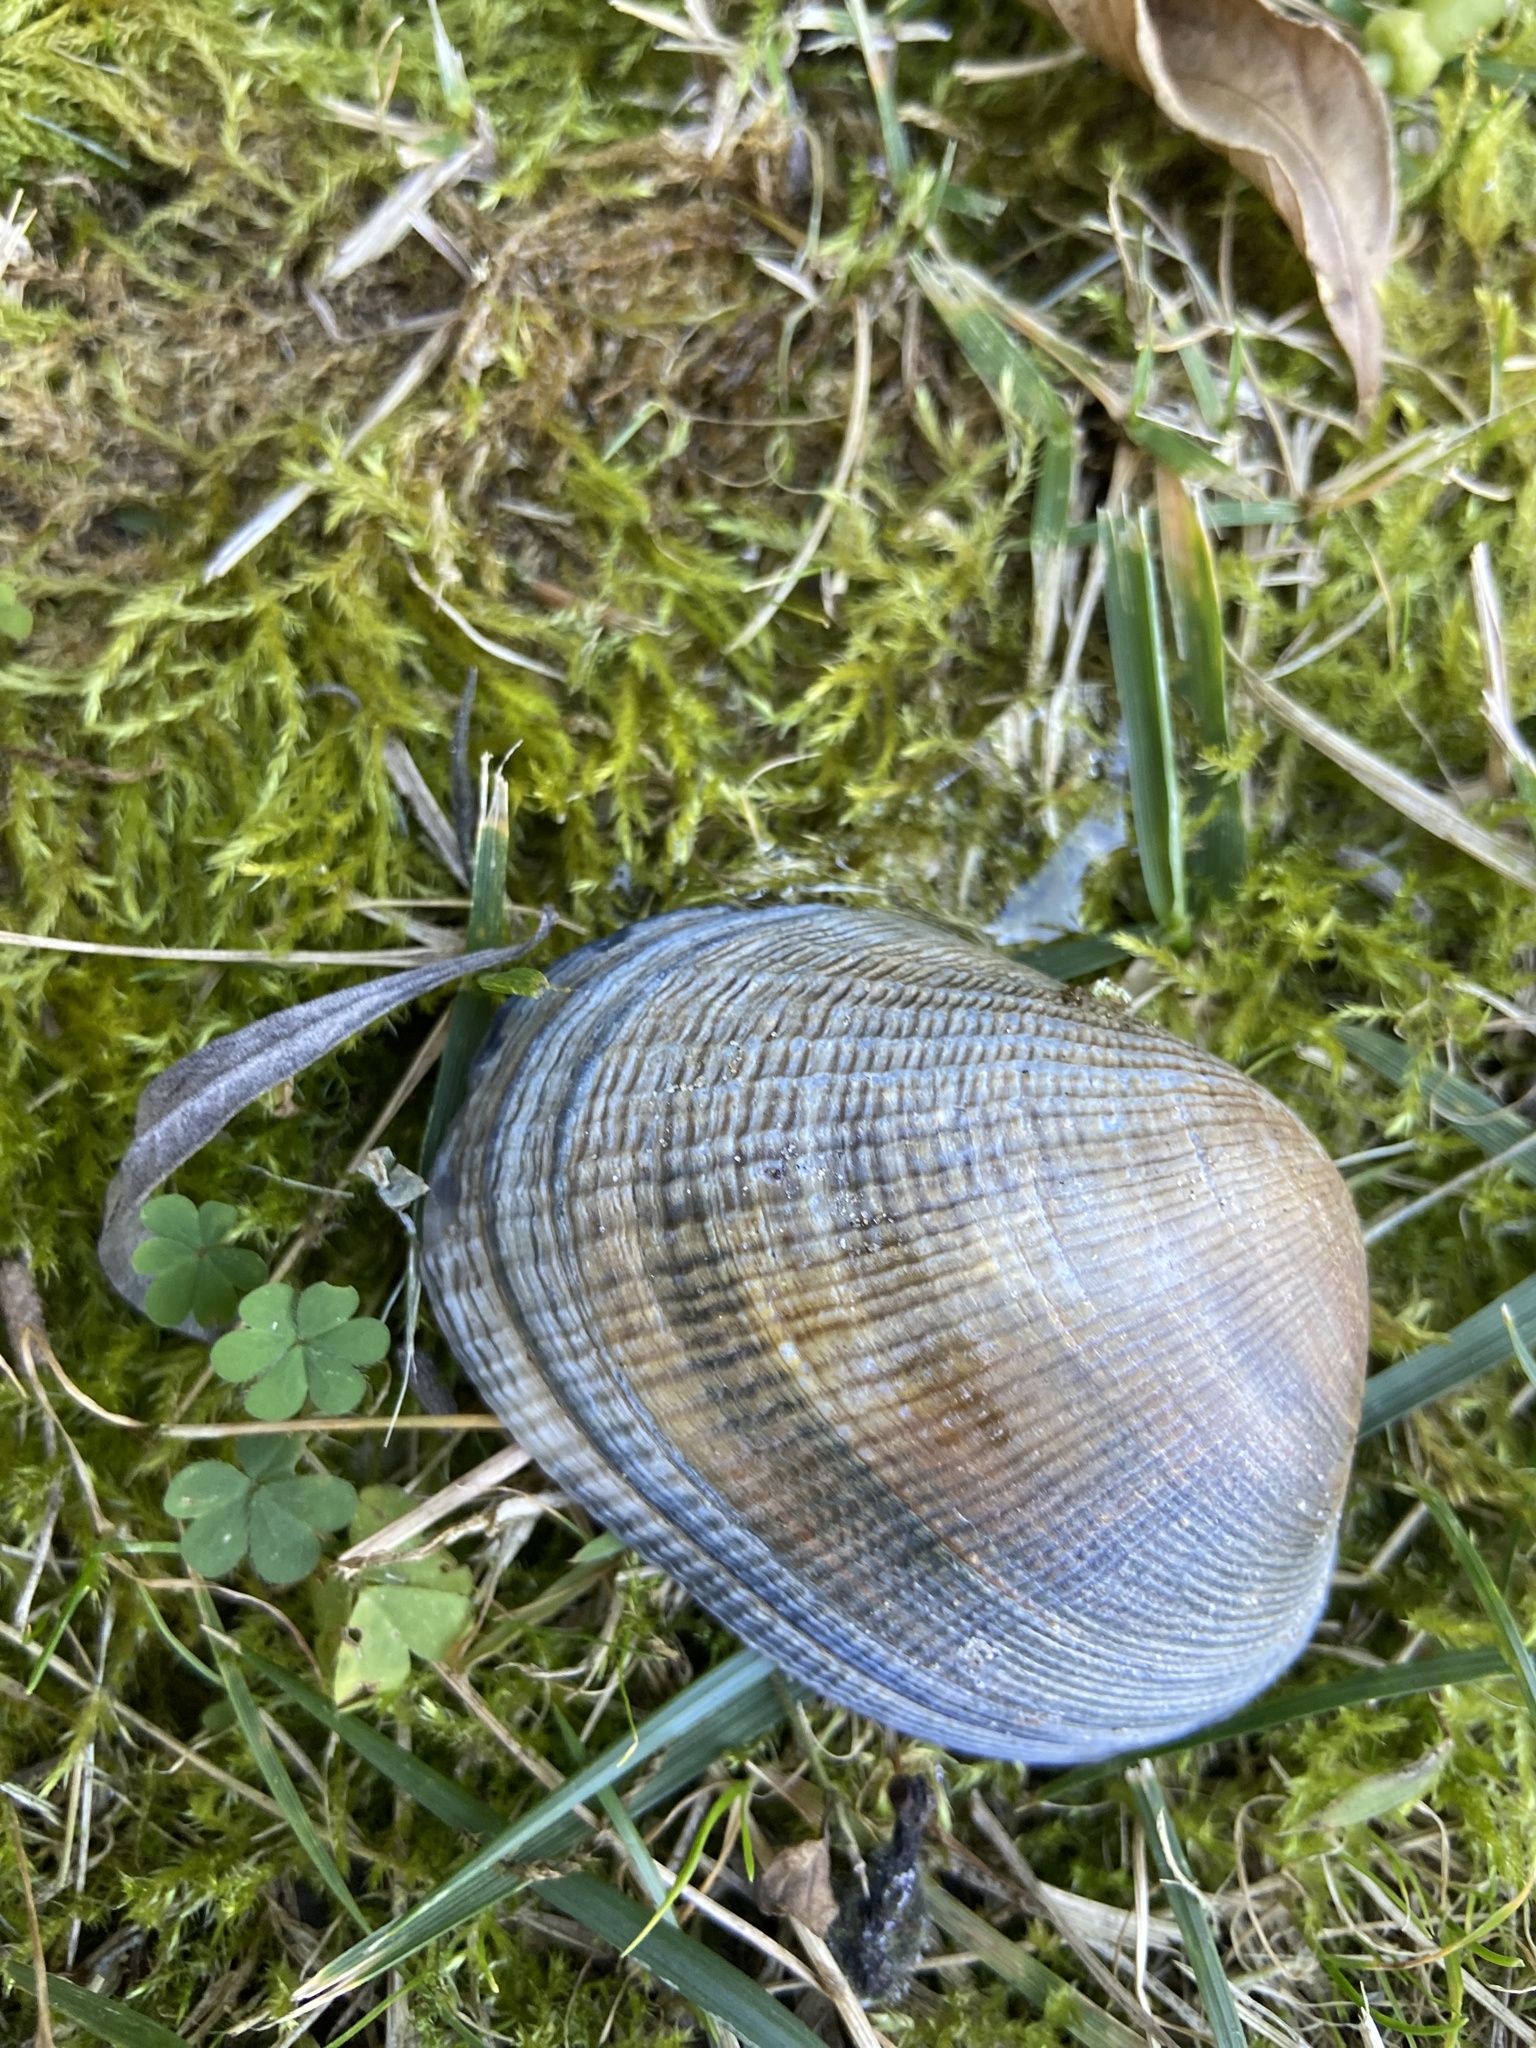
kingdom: Animalia
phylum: Mollusca
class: Bivalvia
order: Venerida
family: Veneridae
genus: Ruditapes
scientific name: Ruditapes philippinarum
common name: Manila clam
